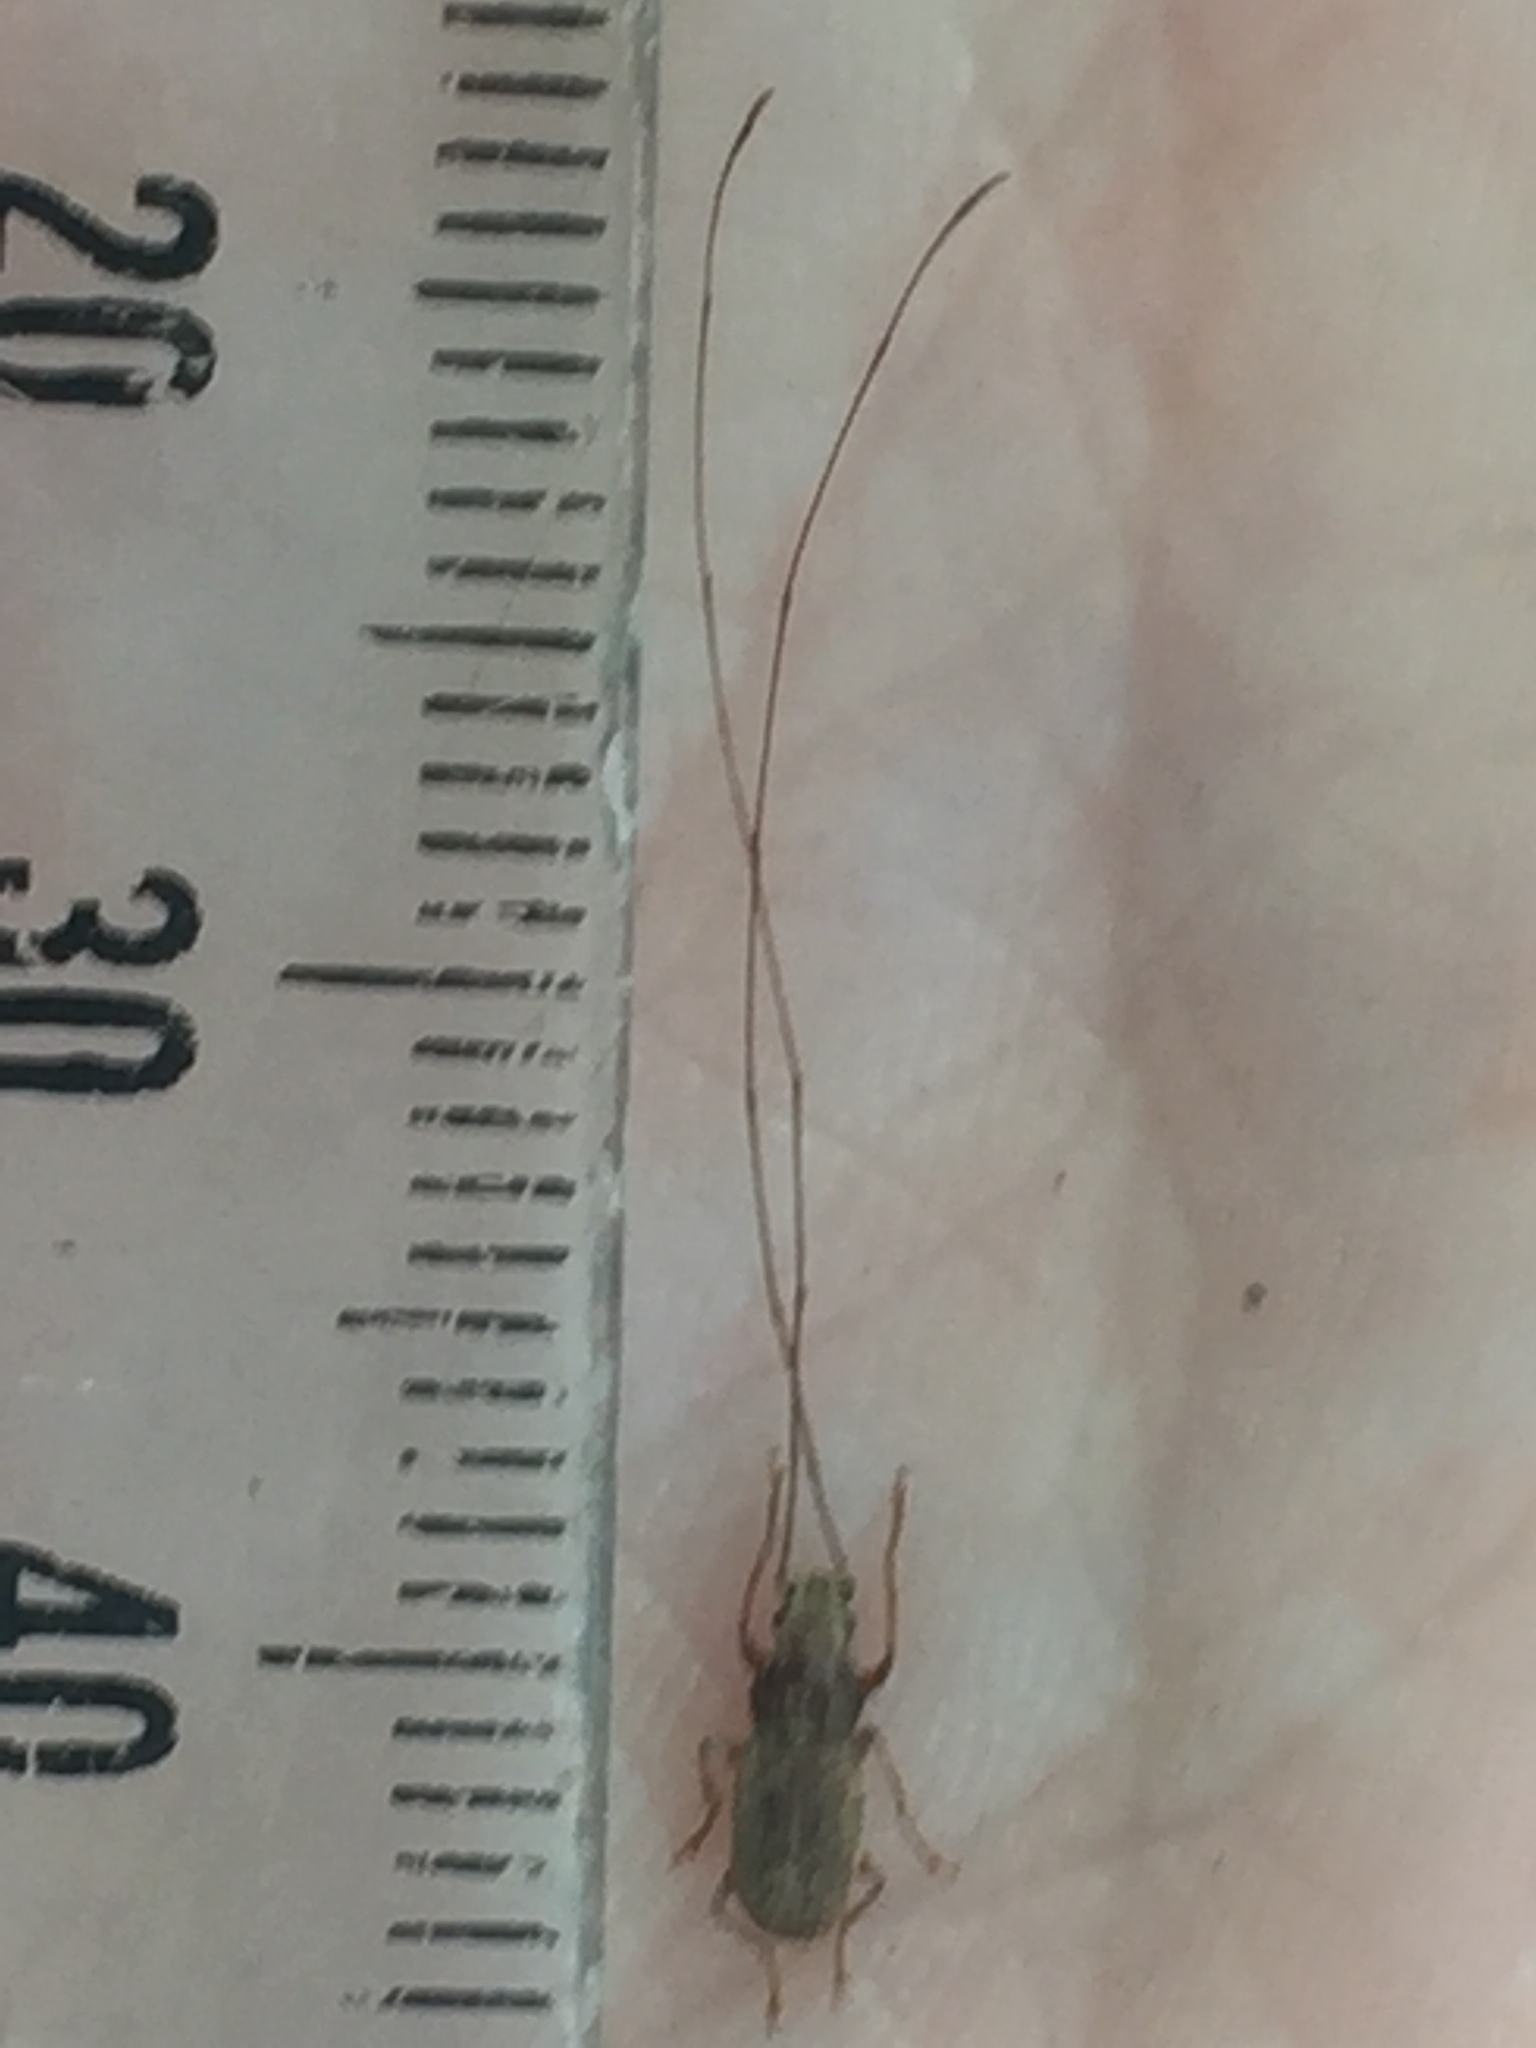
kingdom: Animalia
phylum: Arthropoda
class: Insecta
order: Coleoptera
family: Anthribidae
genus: Arecopais
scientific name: Arecopais spectabilis
